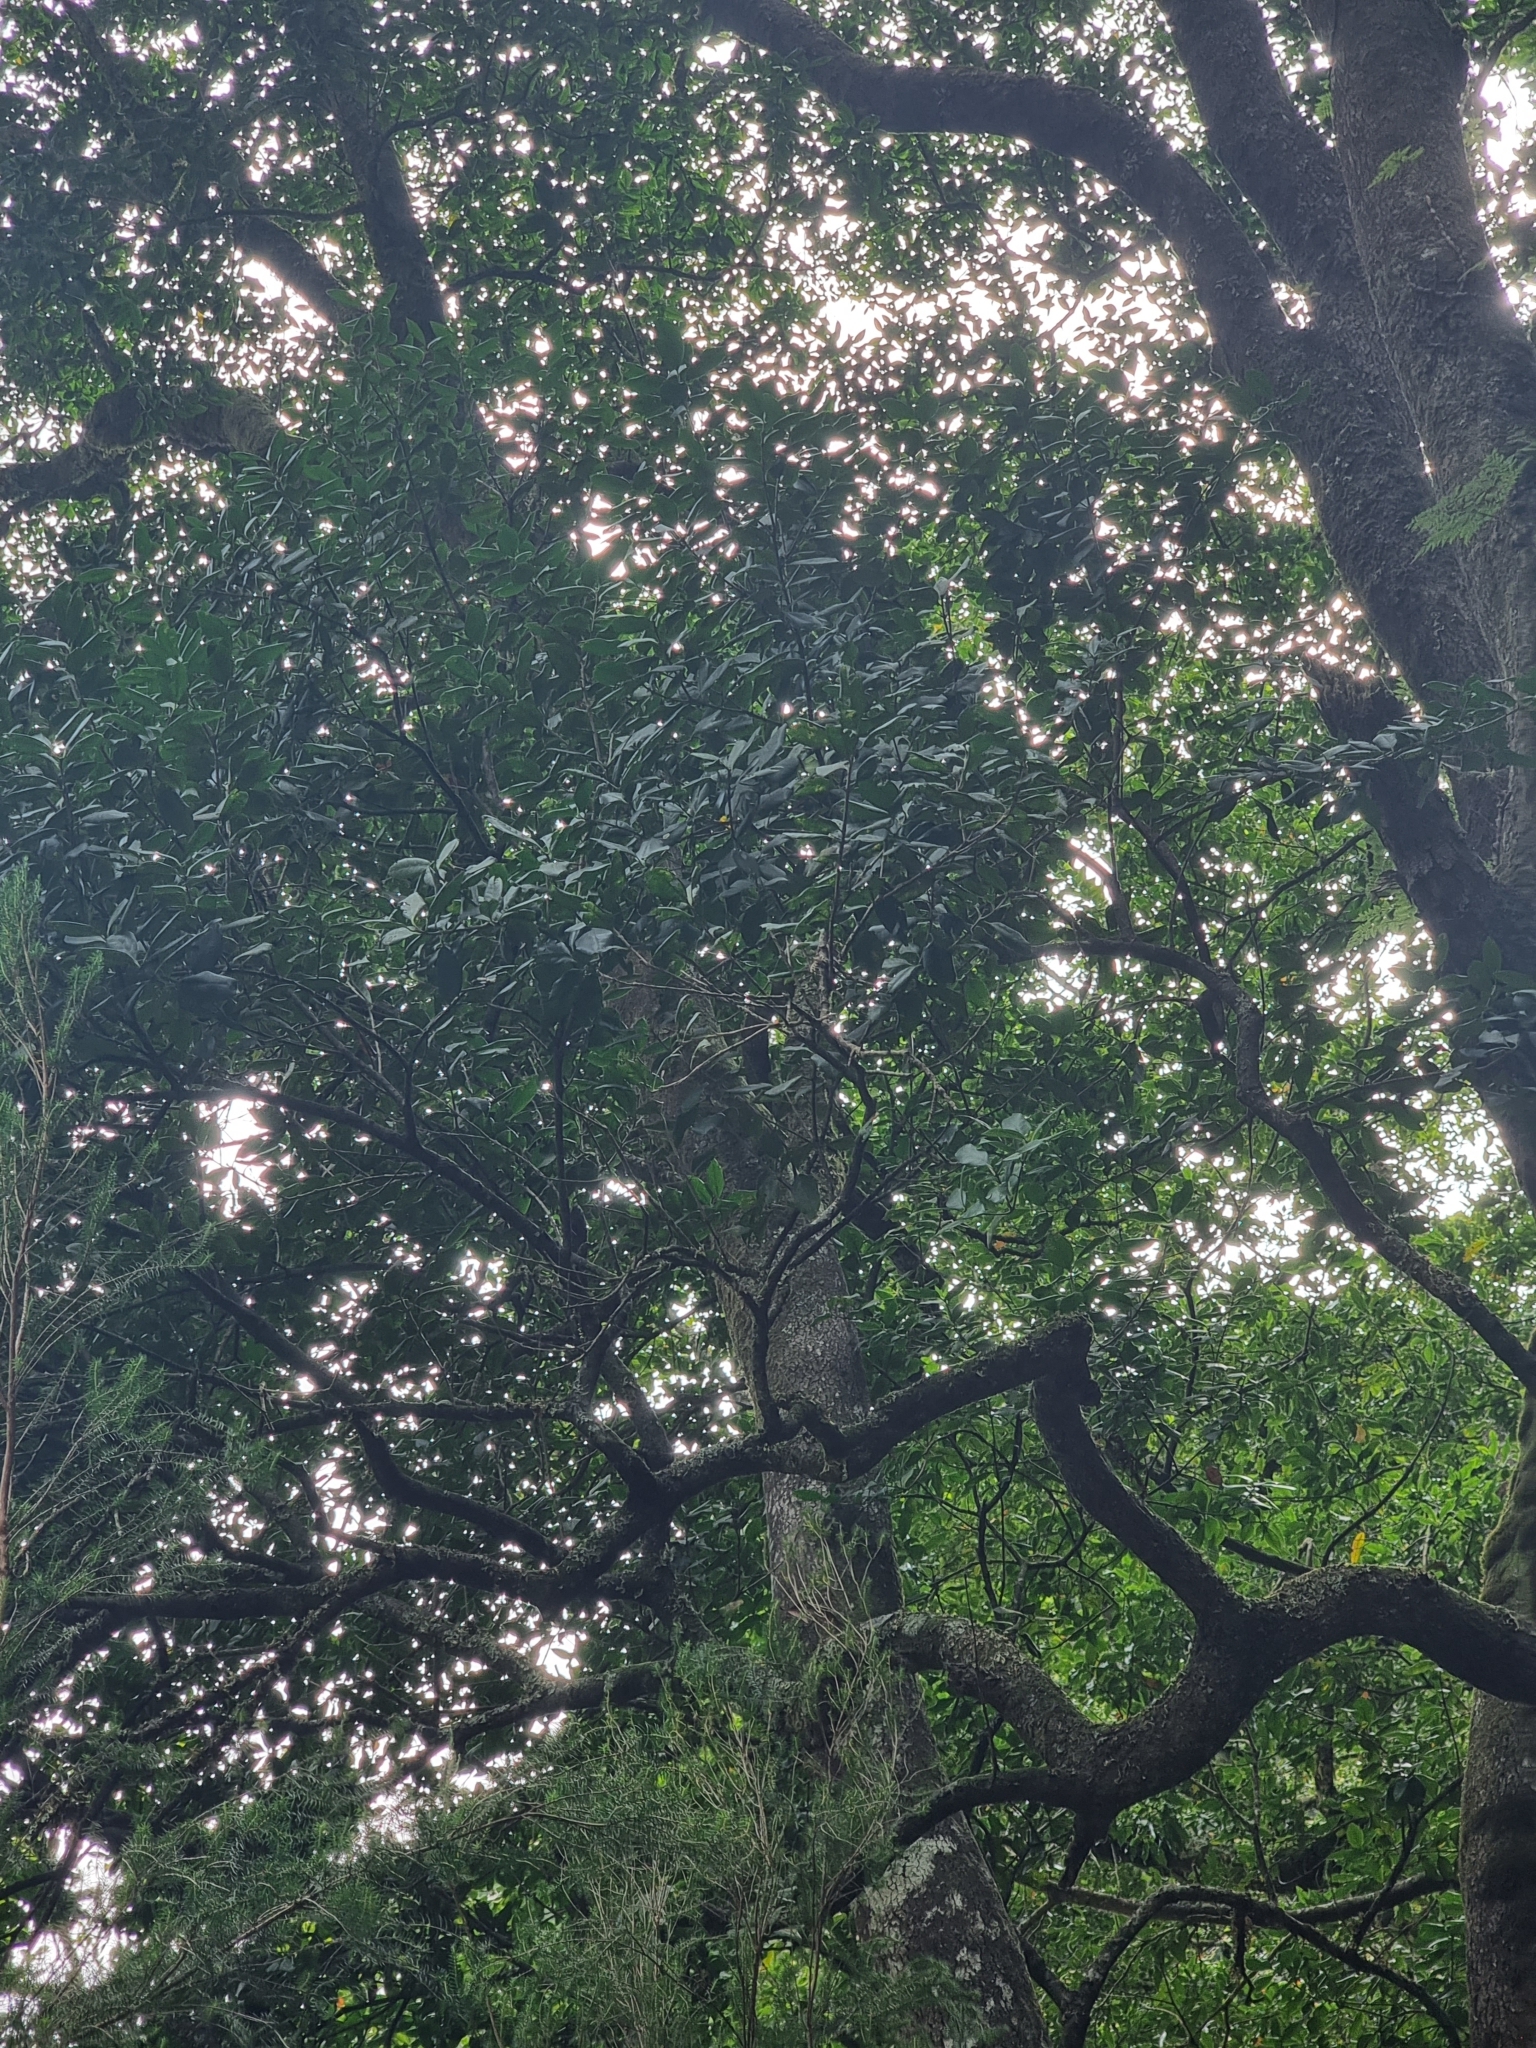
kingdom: Plantae
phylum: Tracheophyta
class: Magnoliopsida
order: Lamiales
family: Oleaceae
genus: Picconia
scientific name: Picconia excelsa
